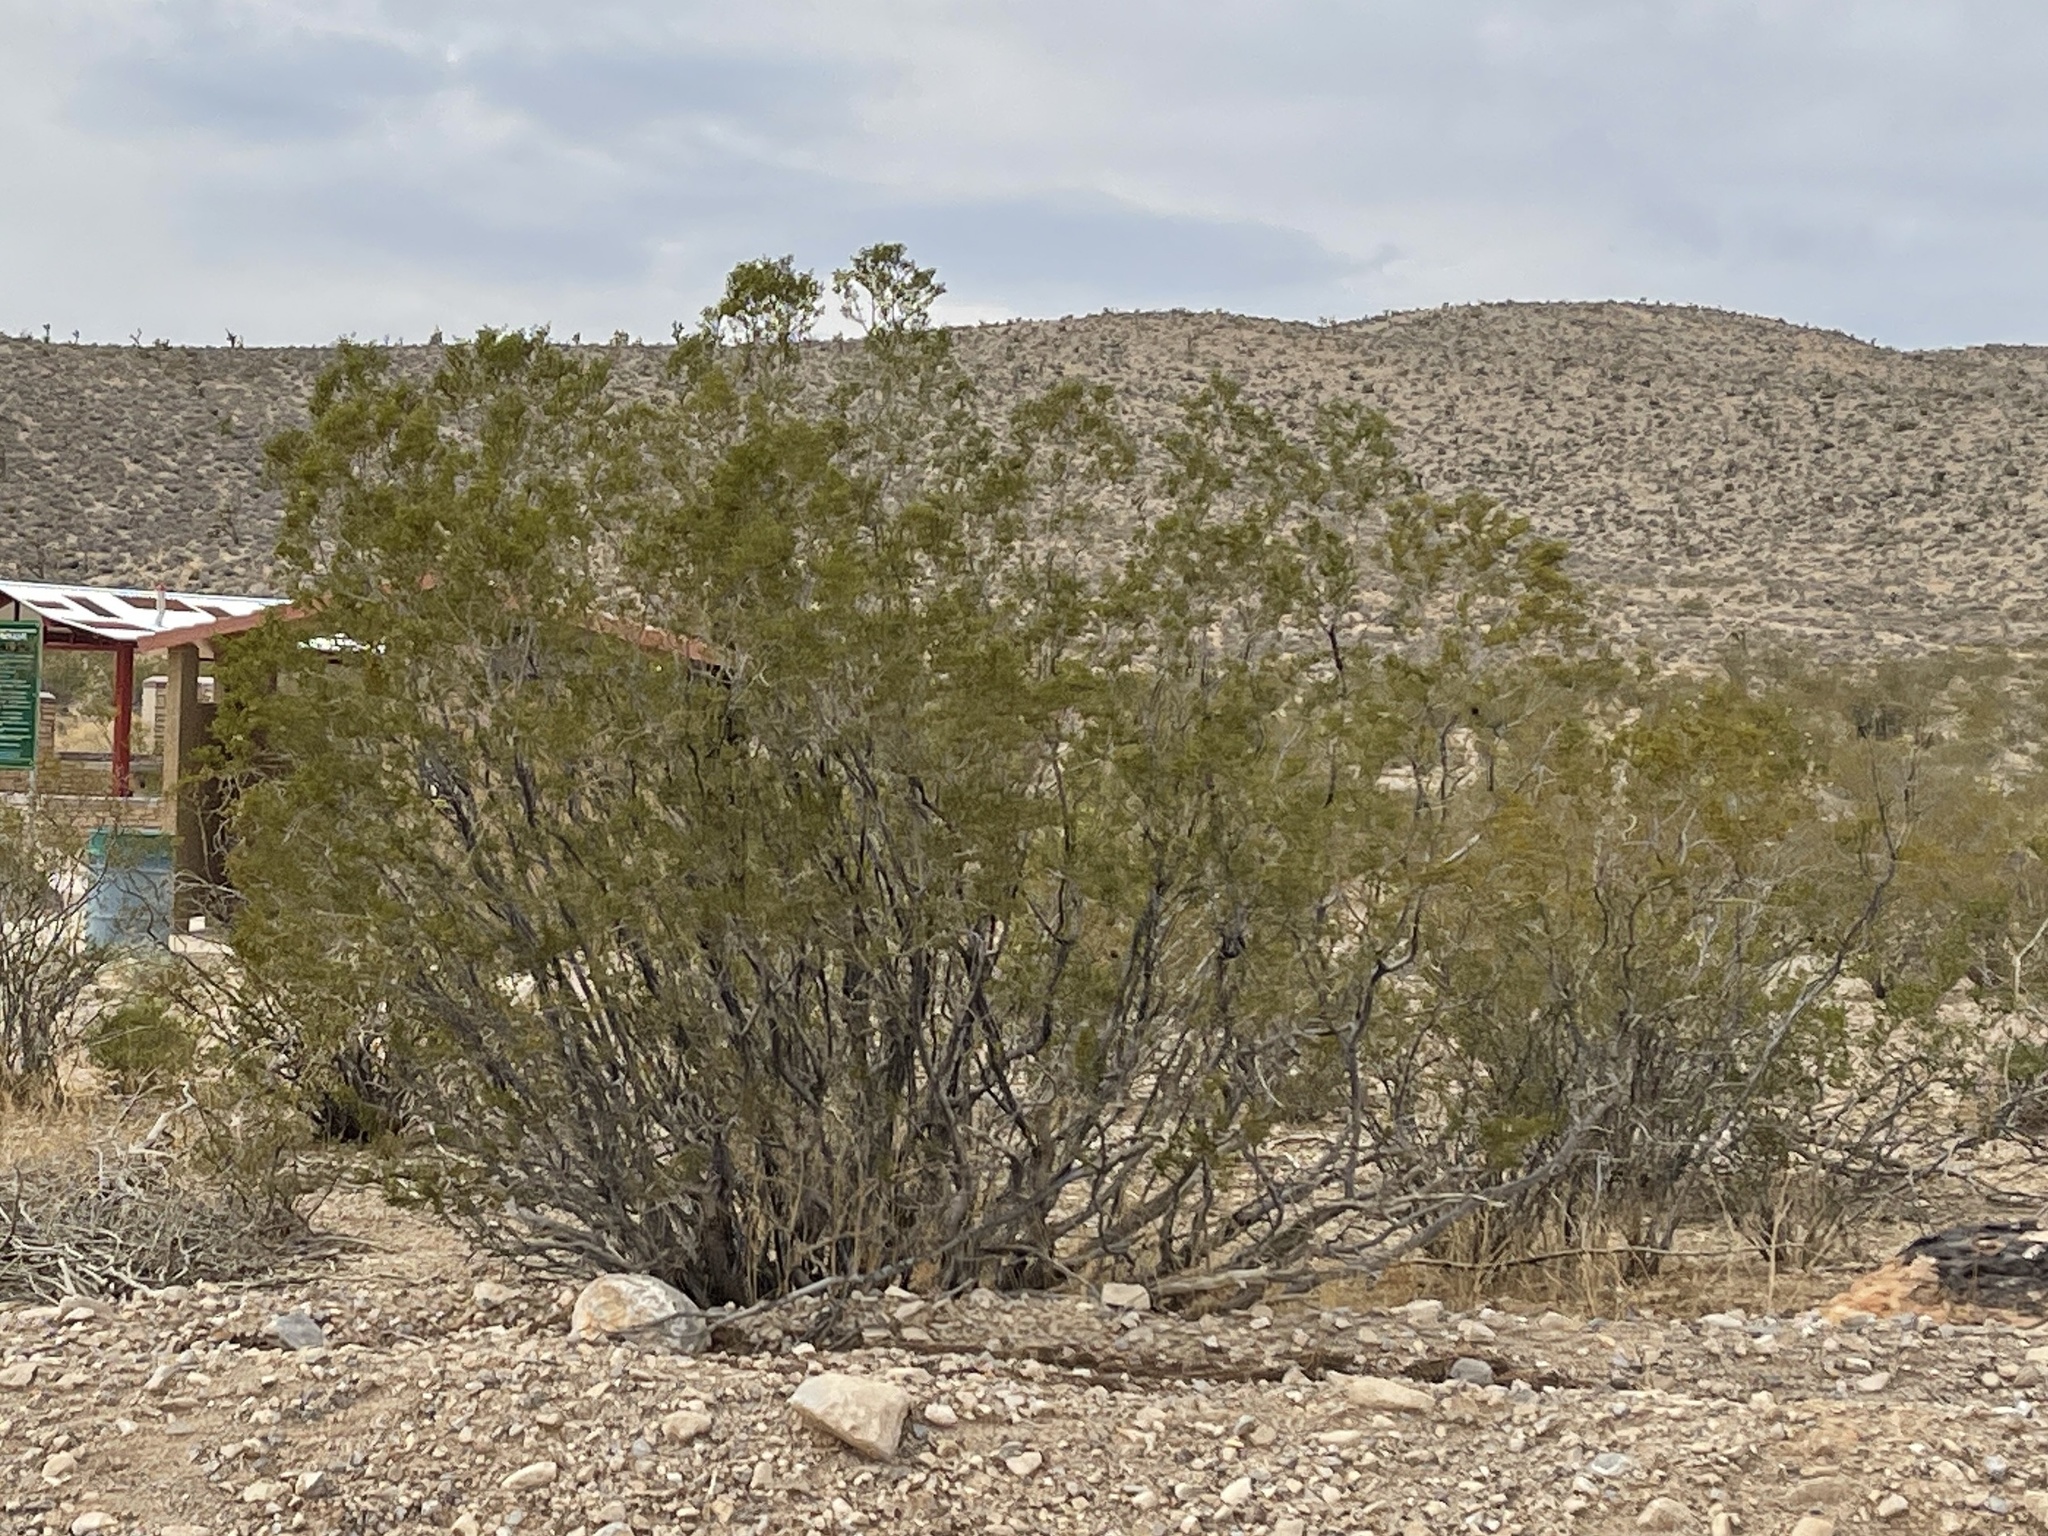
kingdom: Plantae
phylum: Tracheophyta
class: Magnoliopsida
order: Zygophyllales
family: Zygophyllaceae
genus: Larrea
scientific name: Larrea tridentata
